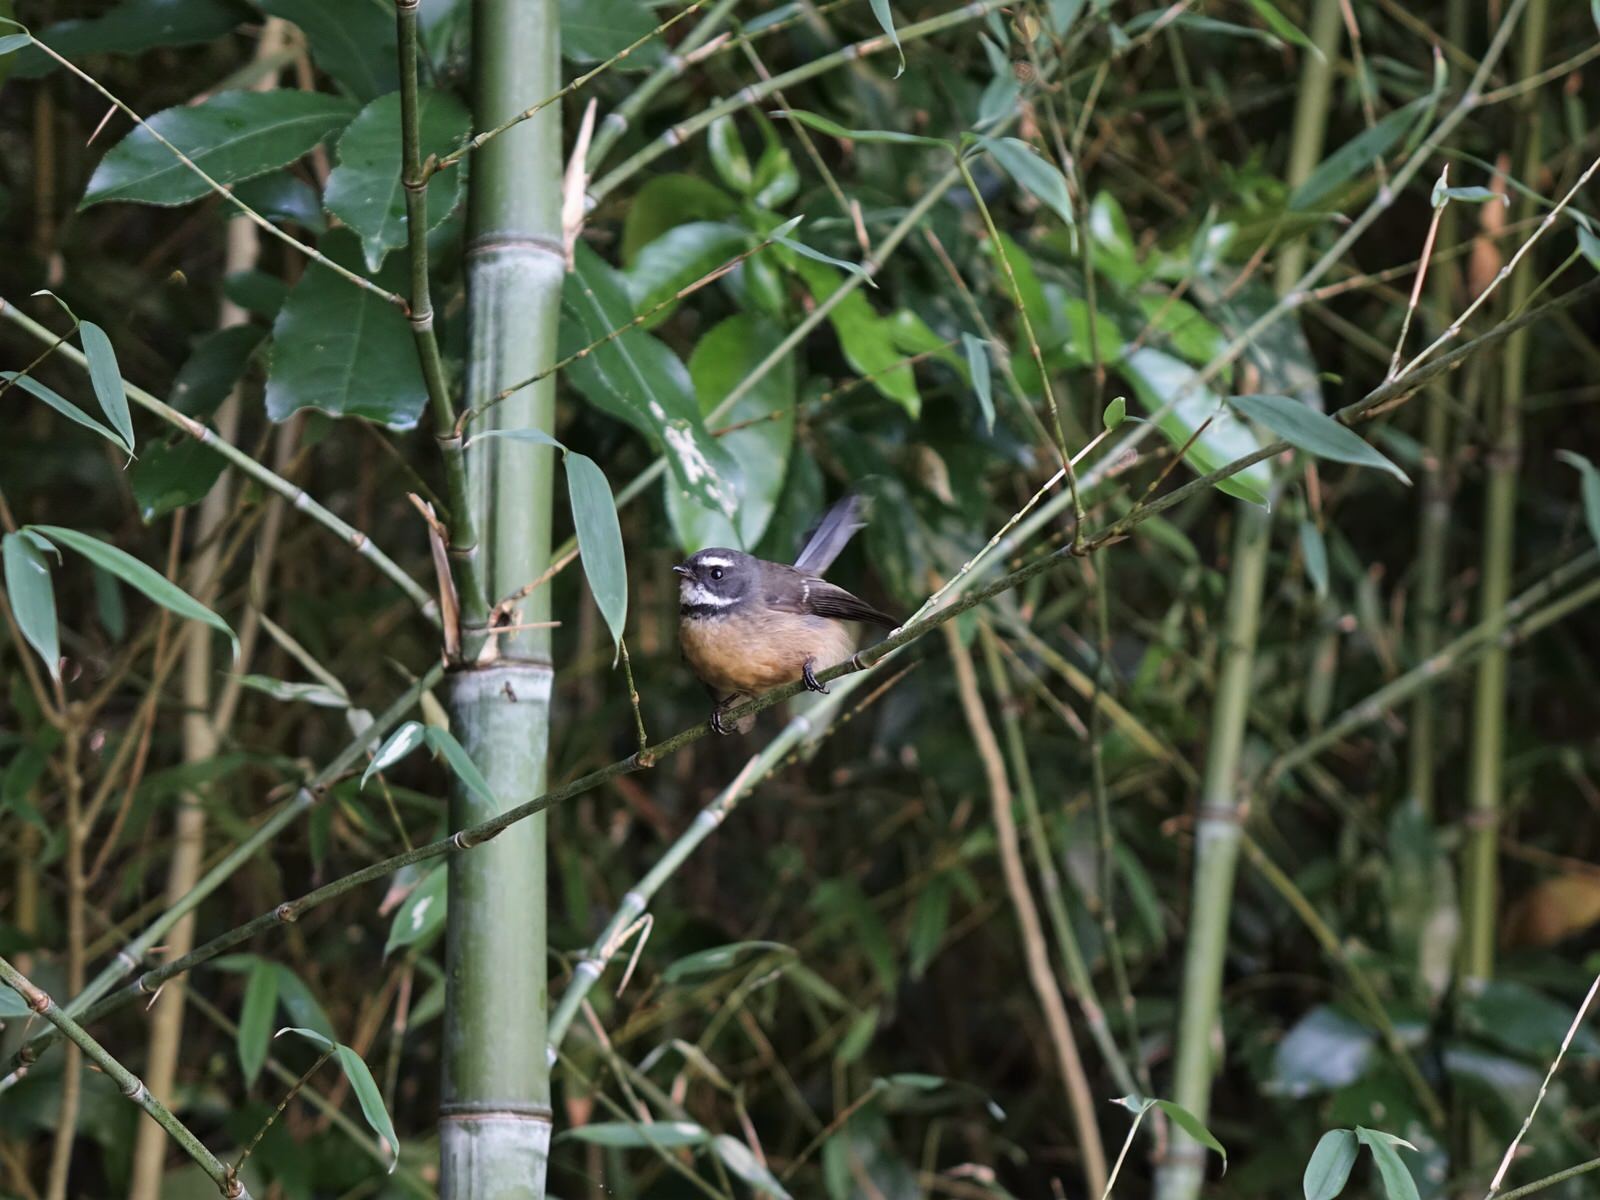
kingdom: Animalia
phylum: Chordata
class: Aves
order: Passeriformes
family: Rhipiduridae
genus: Rhipidura
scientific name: Rhipidura fuliginosa
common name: New zealand fantail
